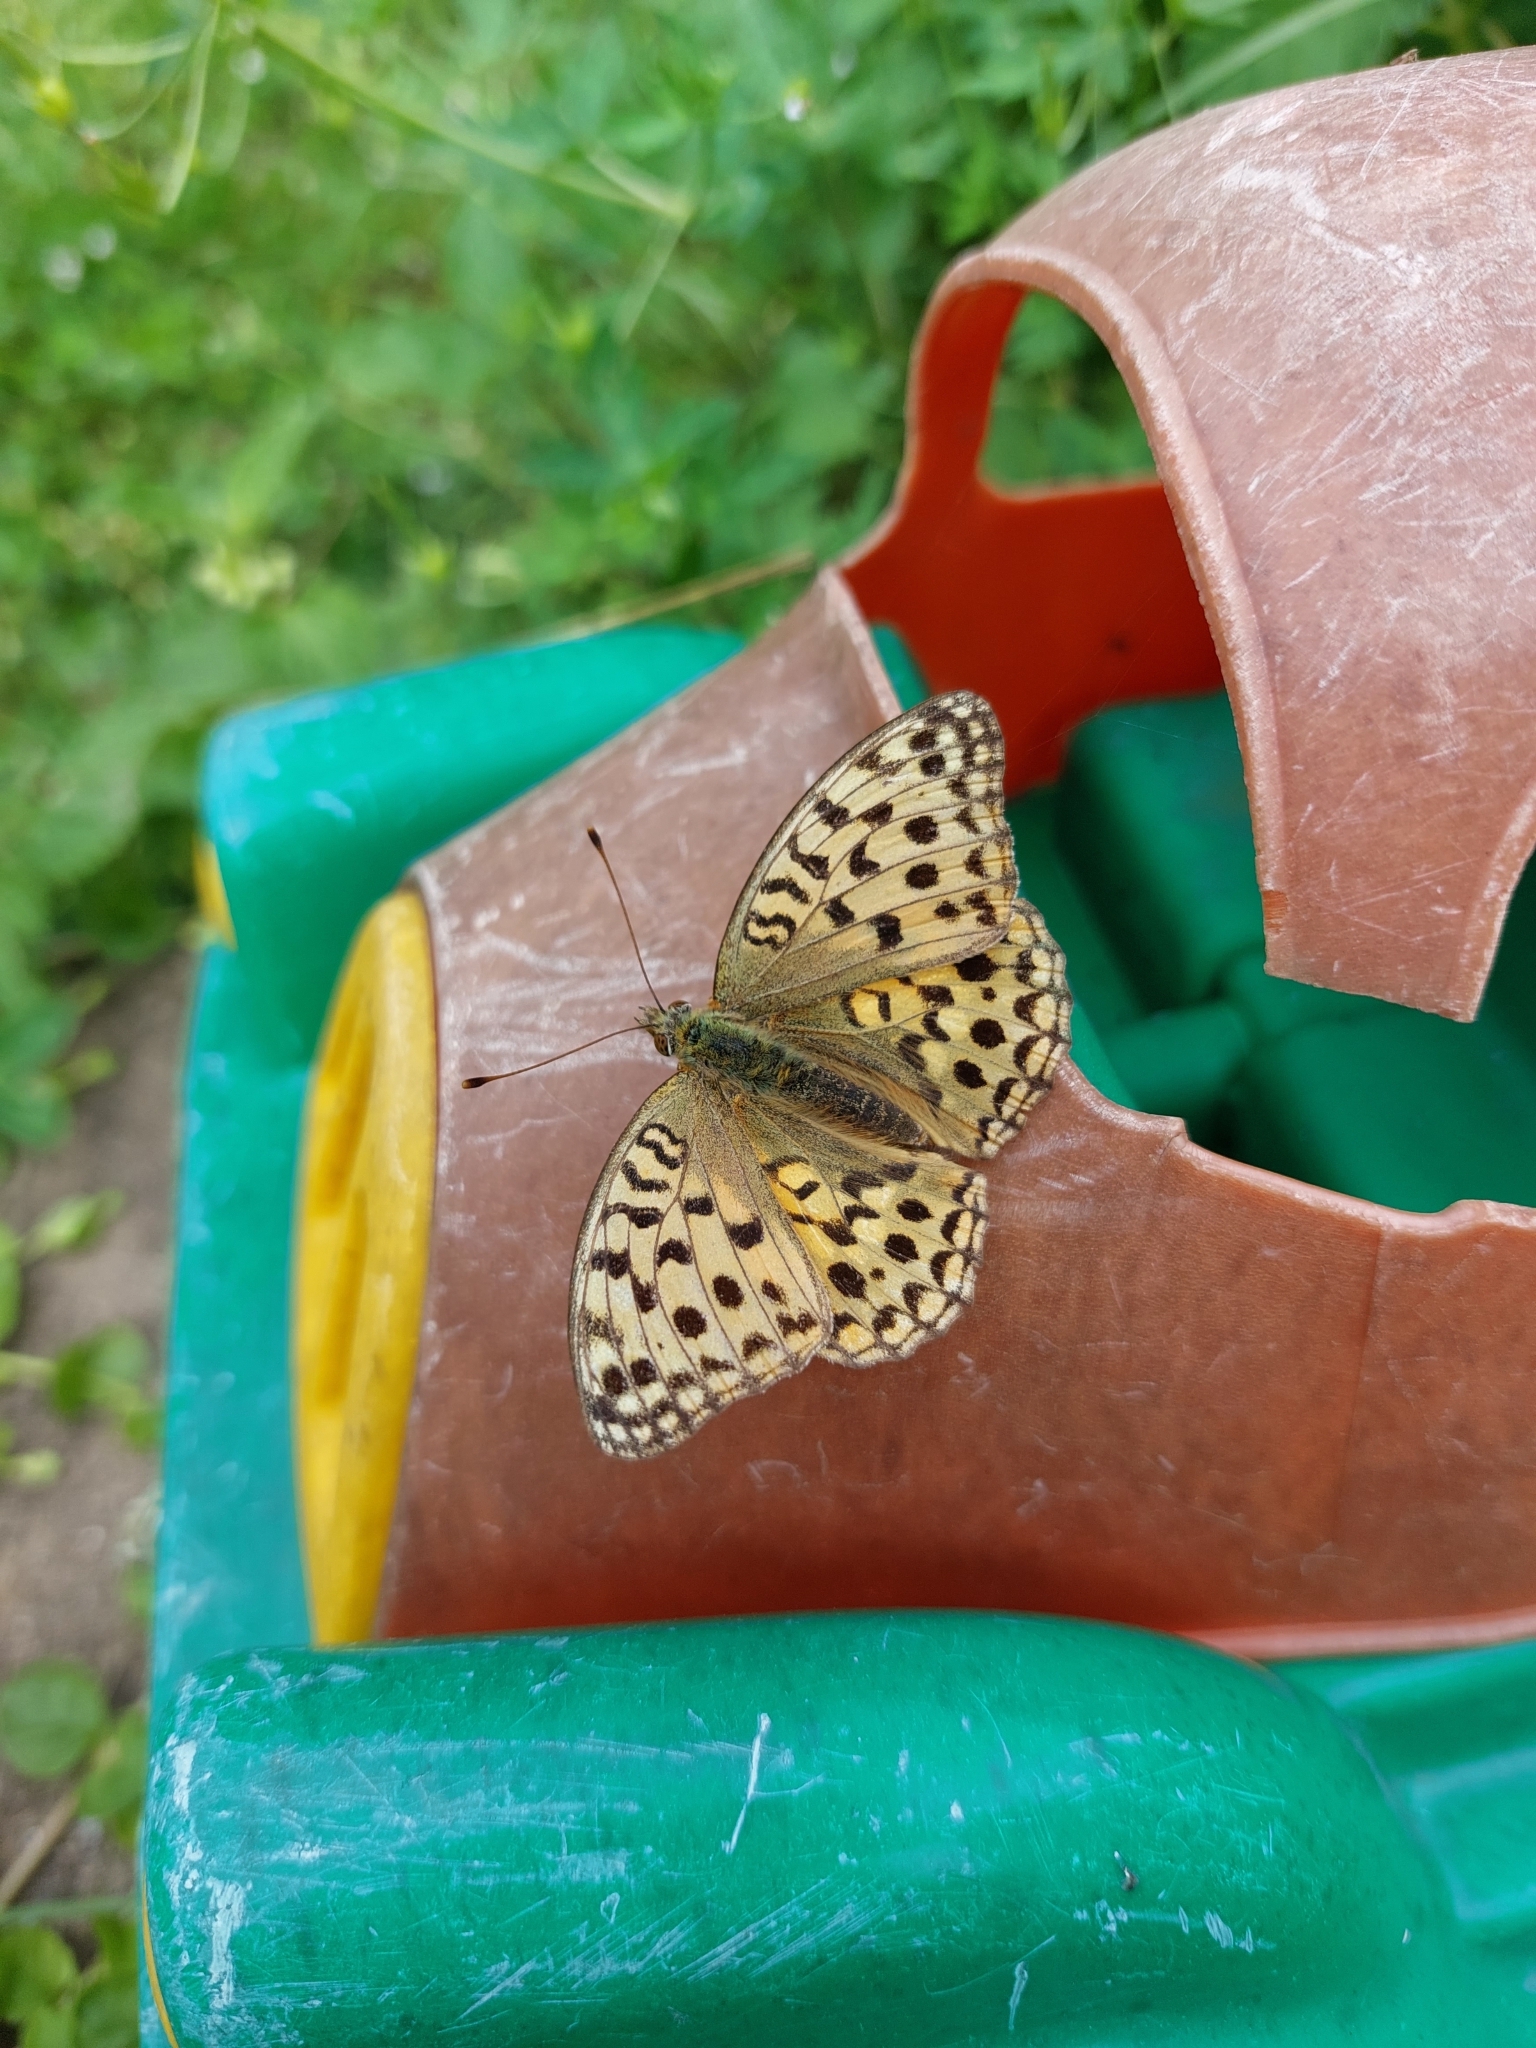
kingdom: Animalia
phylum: Arthropoda
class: Insecta
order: Lepidoptera
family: Nymphalidae
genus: Fabriciana
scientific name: Fabriciana adippe
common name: High brown fritillary
